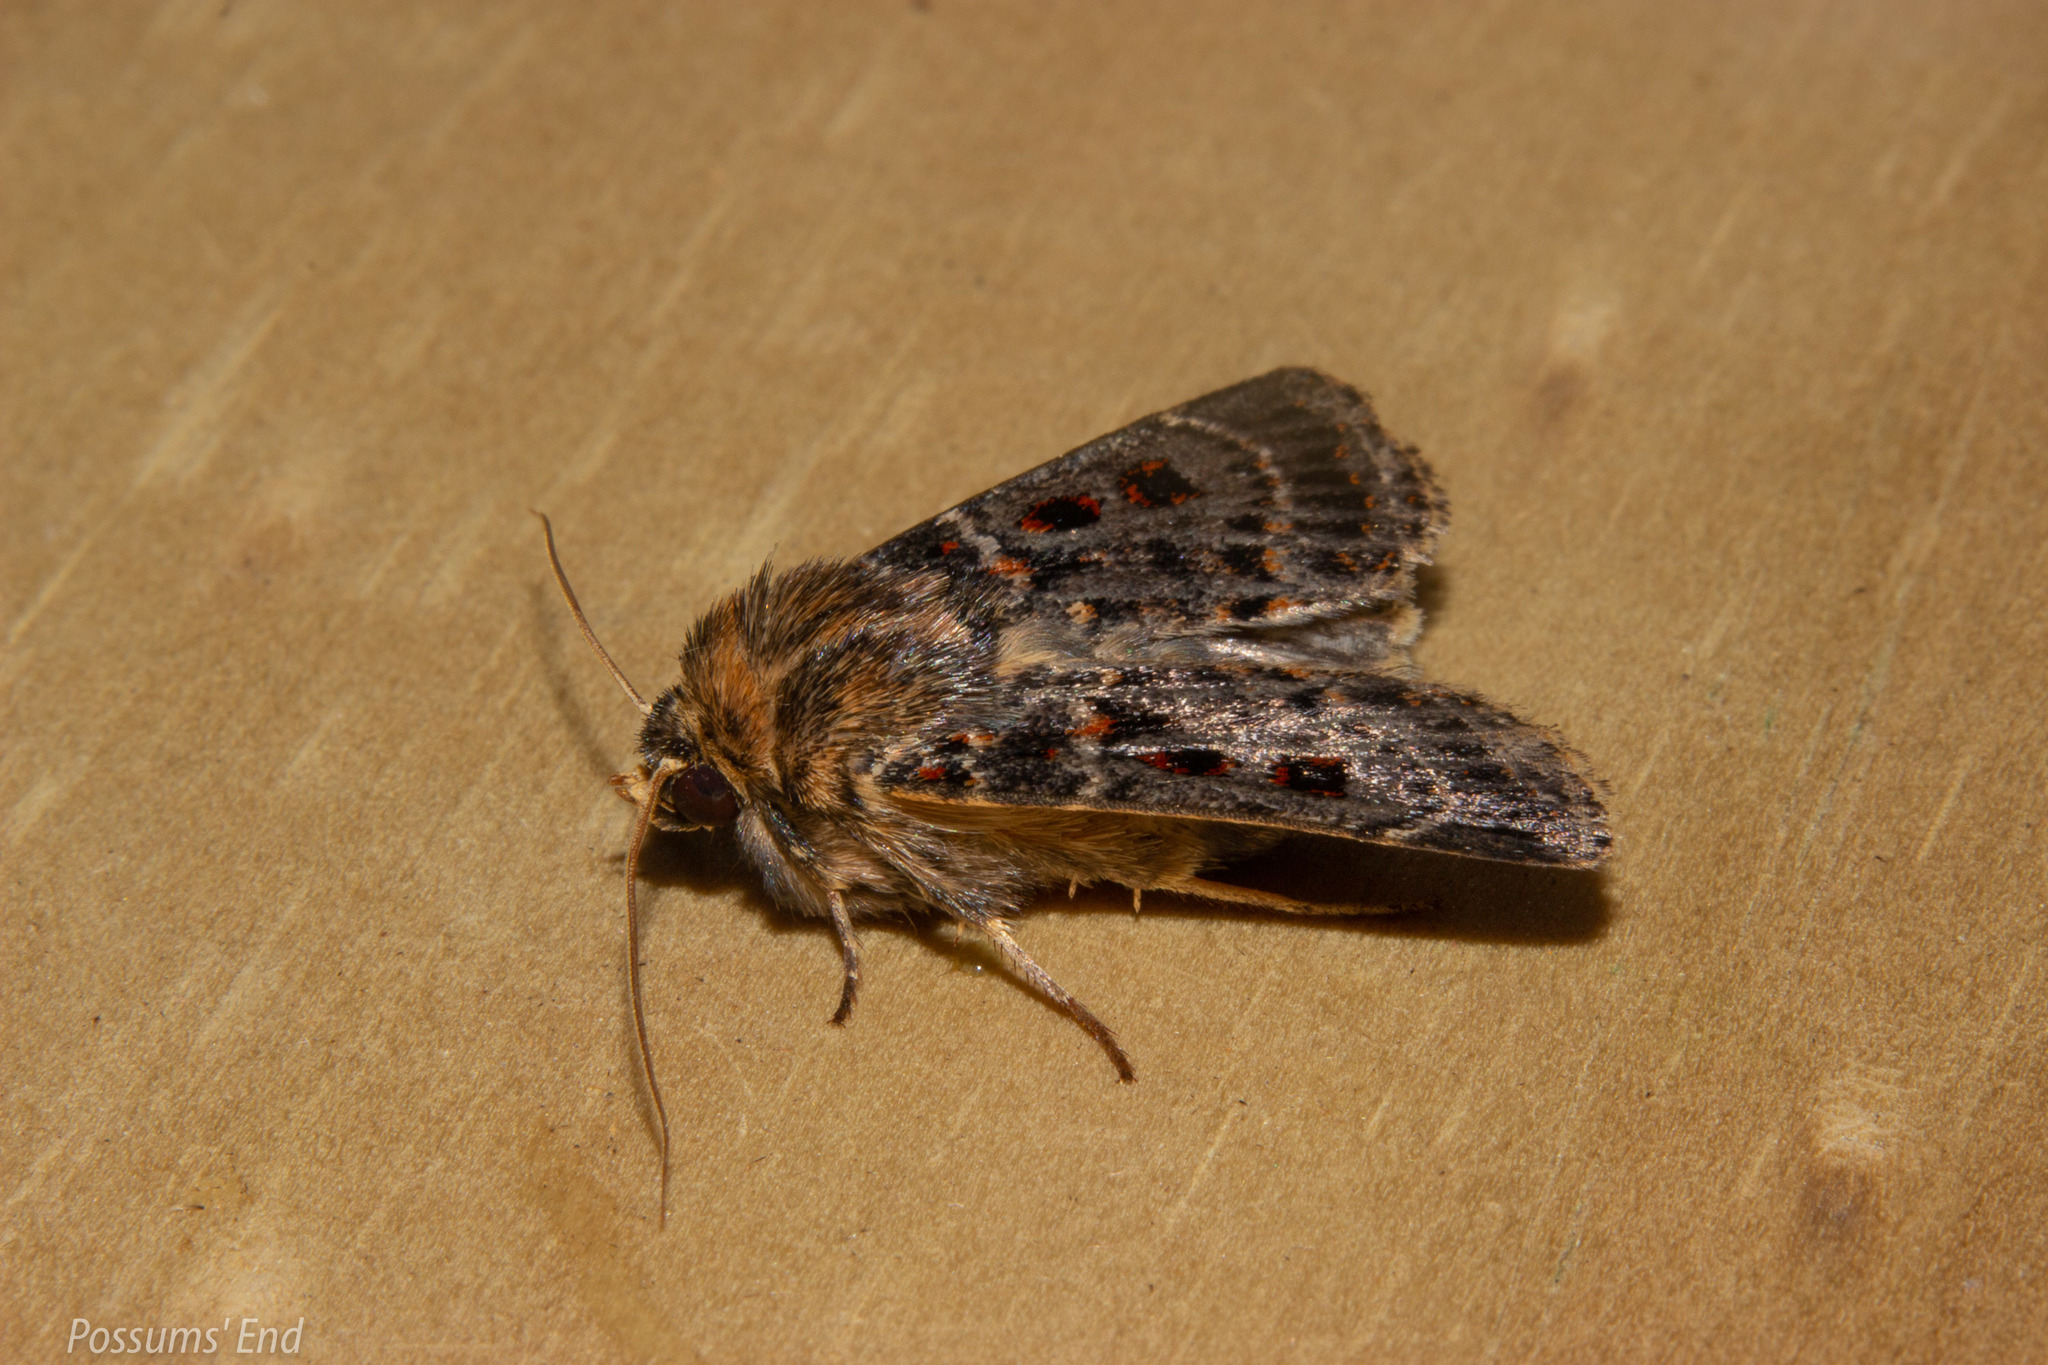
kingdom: Animalia
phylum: Arthropoda
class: Insecta
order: Lepidoptera
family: Noctuidae
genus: Proteuxoa
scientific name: Proteuxoa sanguinipuncta
